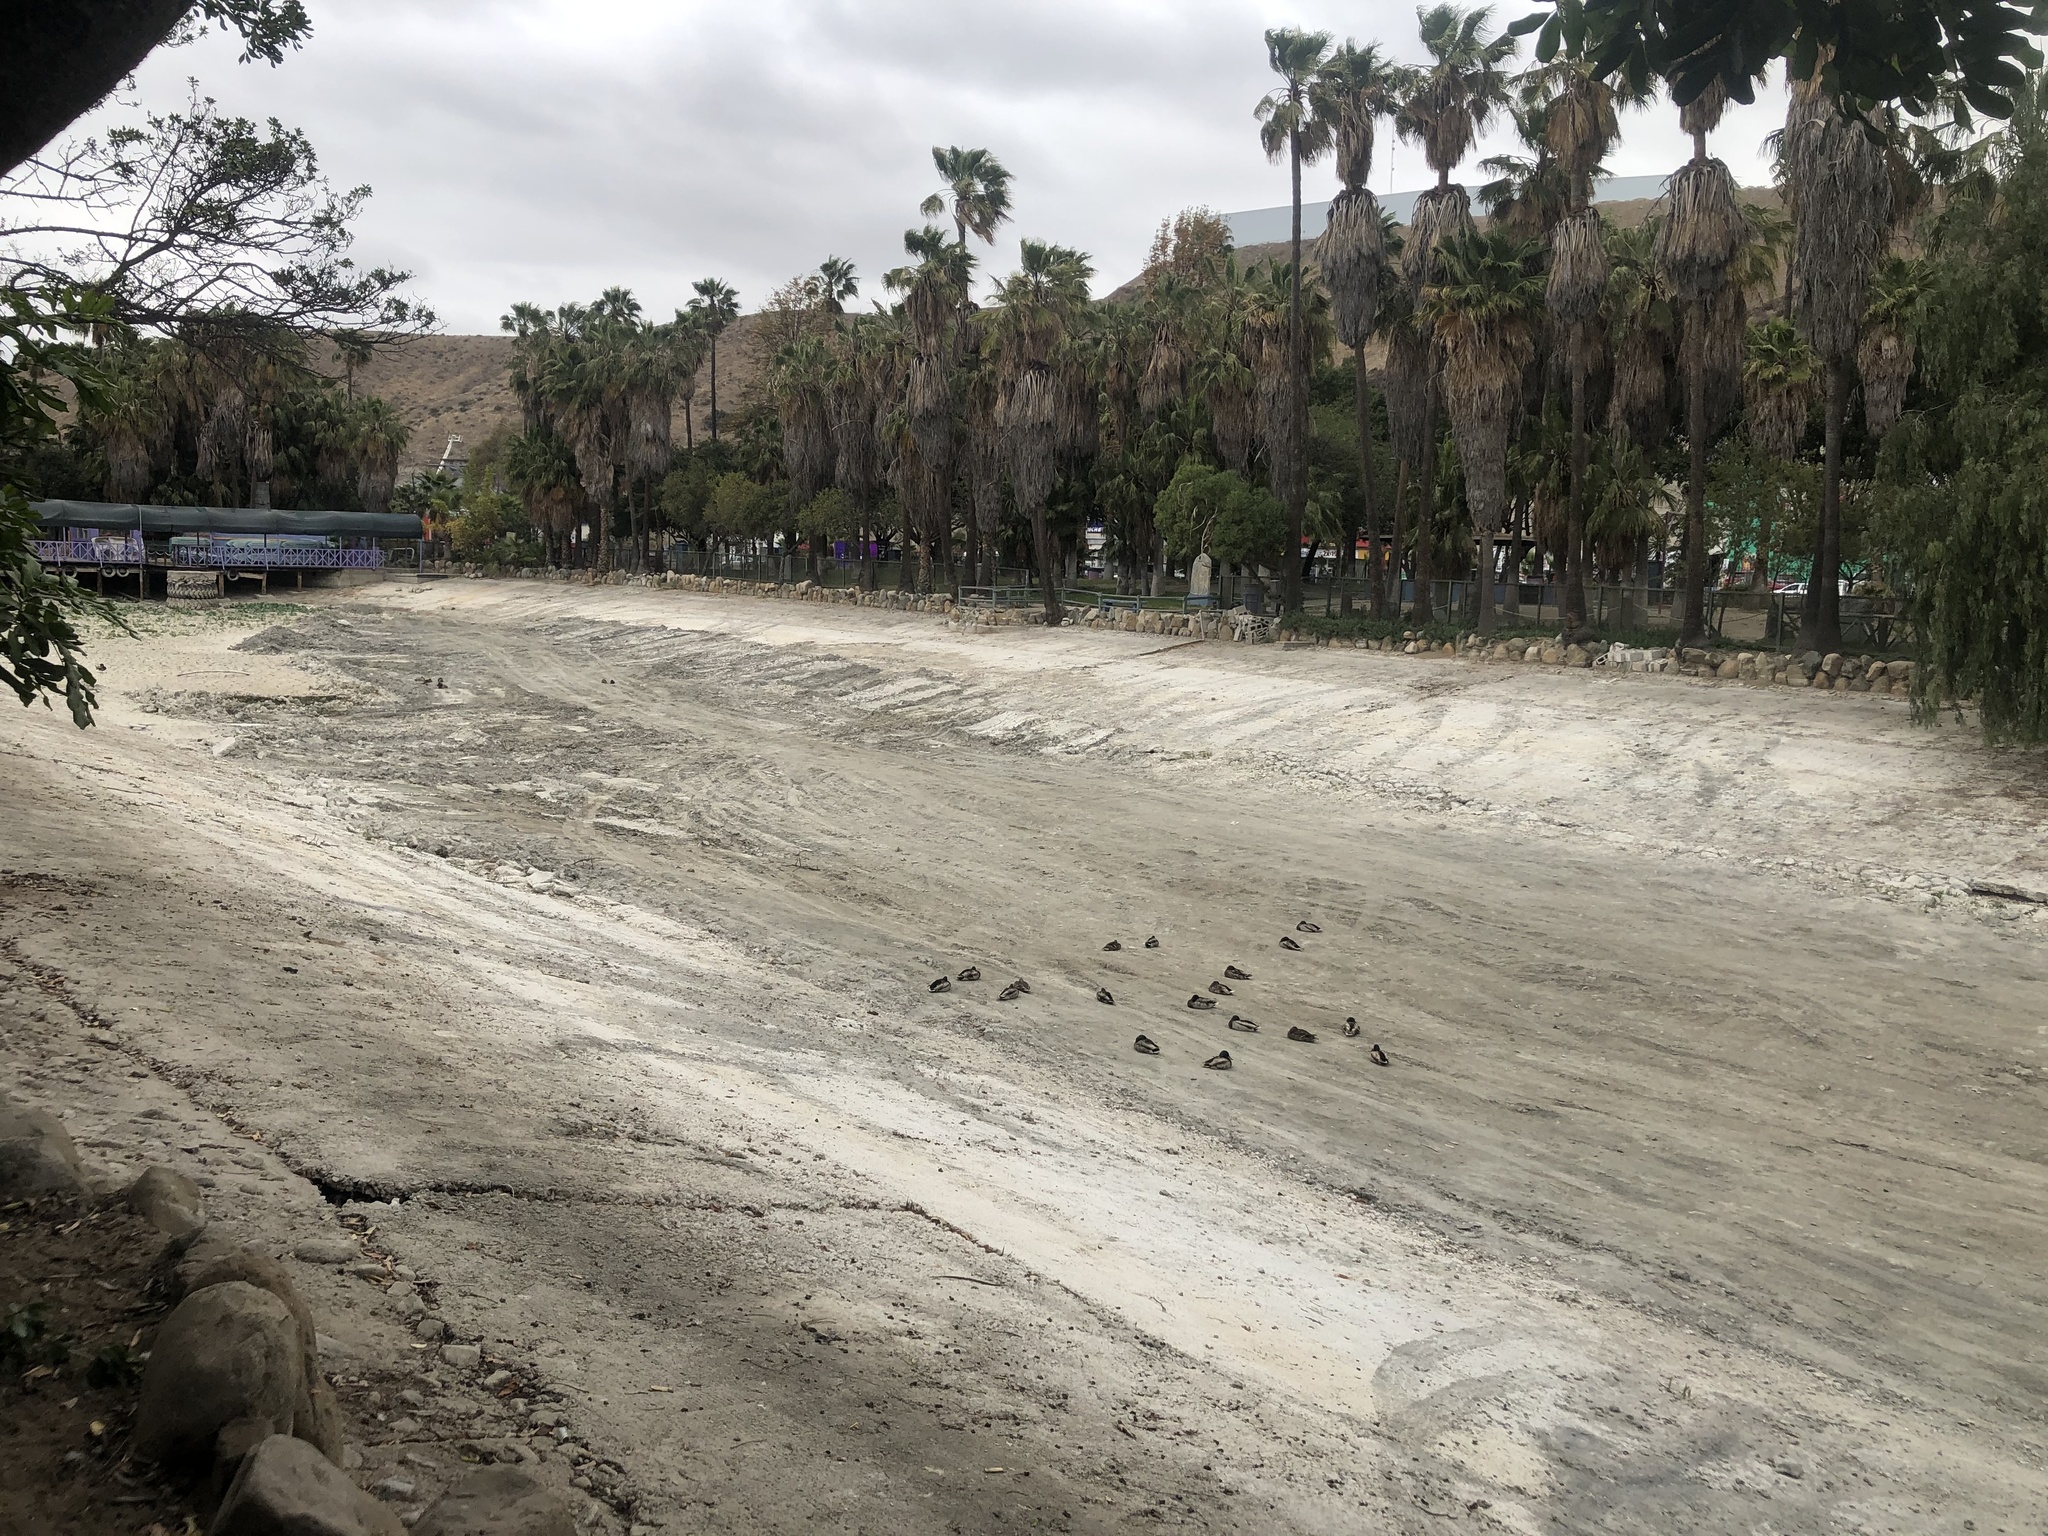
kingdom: Animalia
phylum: Chordata
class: Aves
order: Anseriformes
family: Anatidae
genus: Anas
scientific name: Anas platyrhynchos
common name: Mallard
